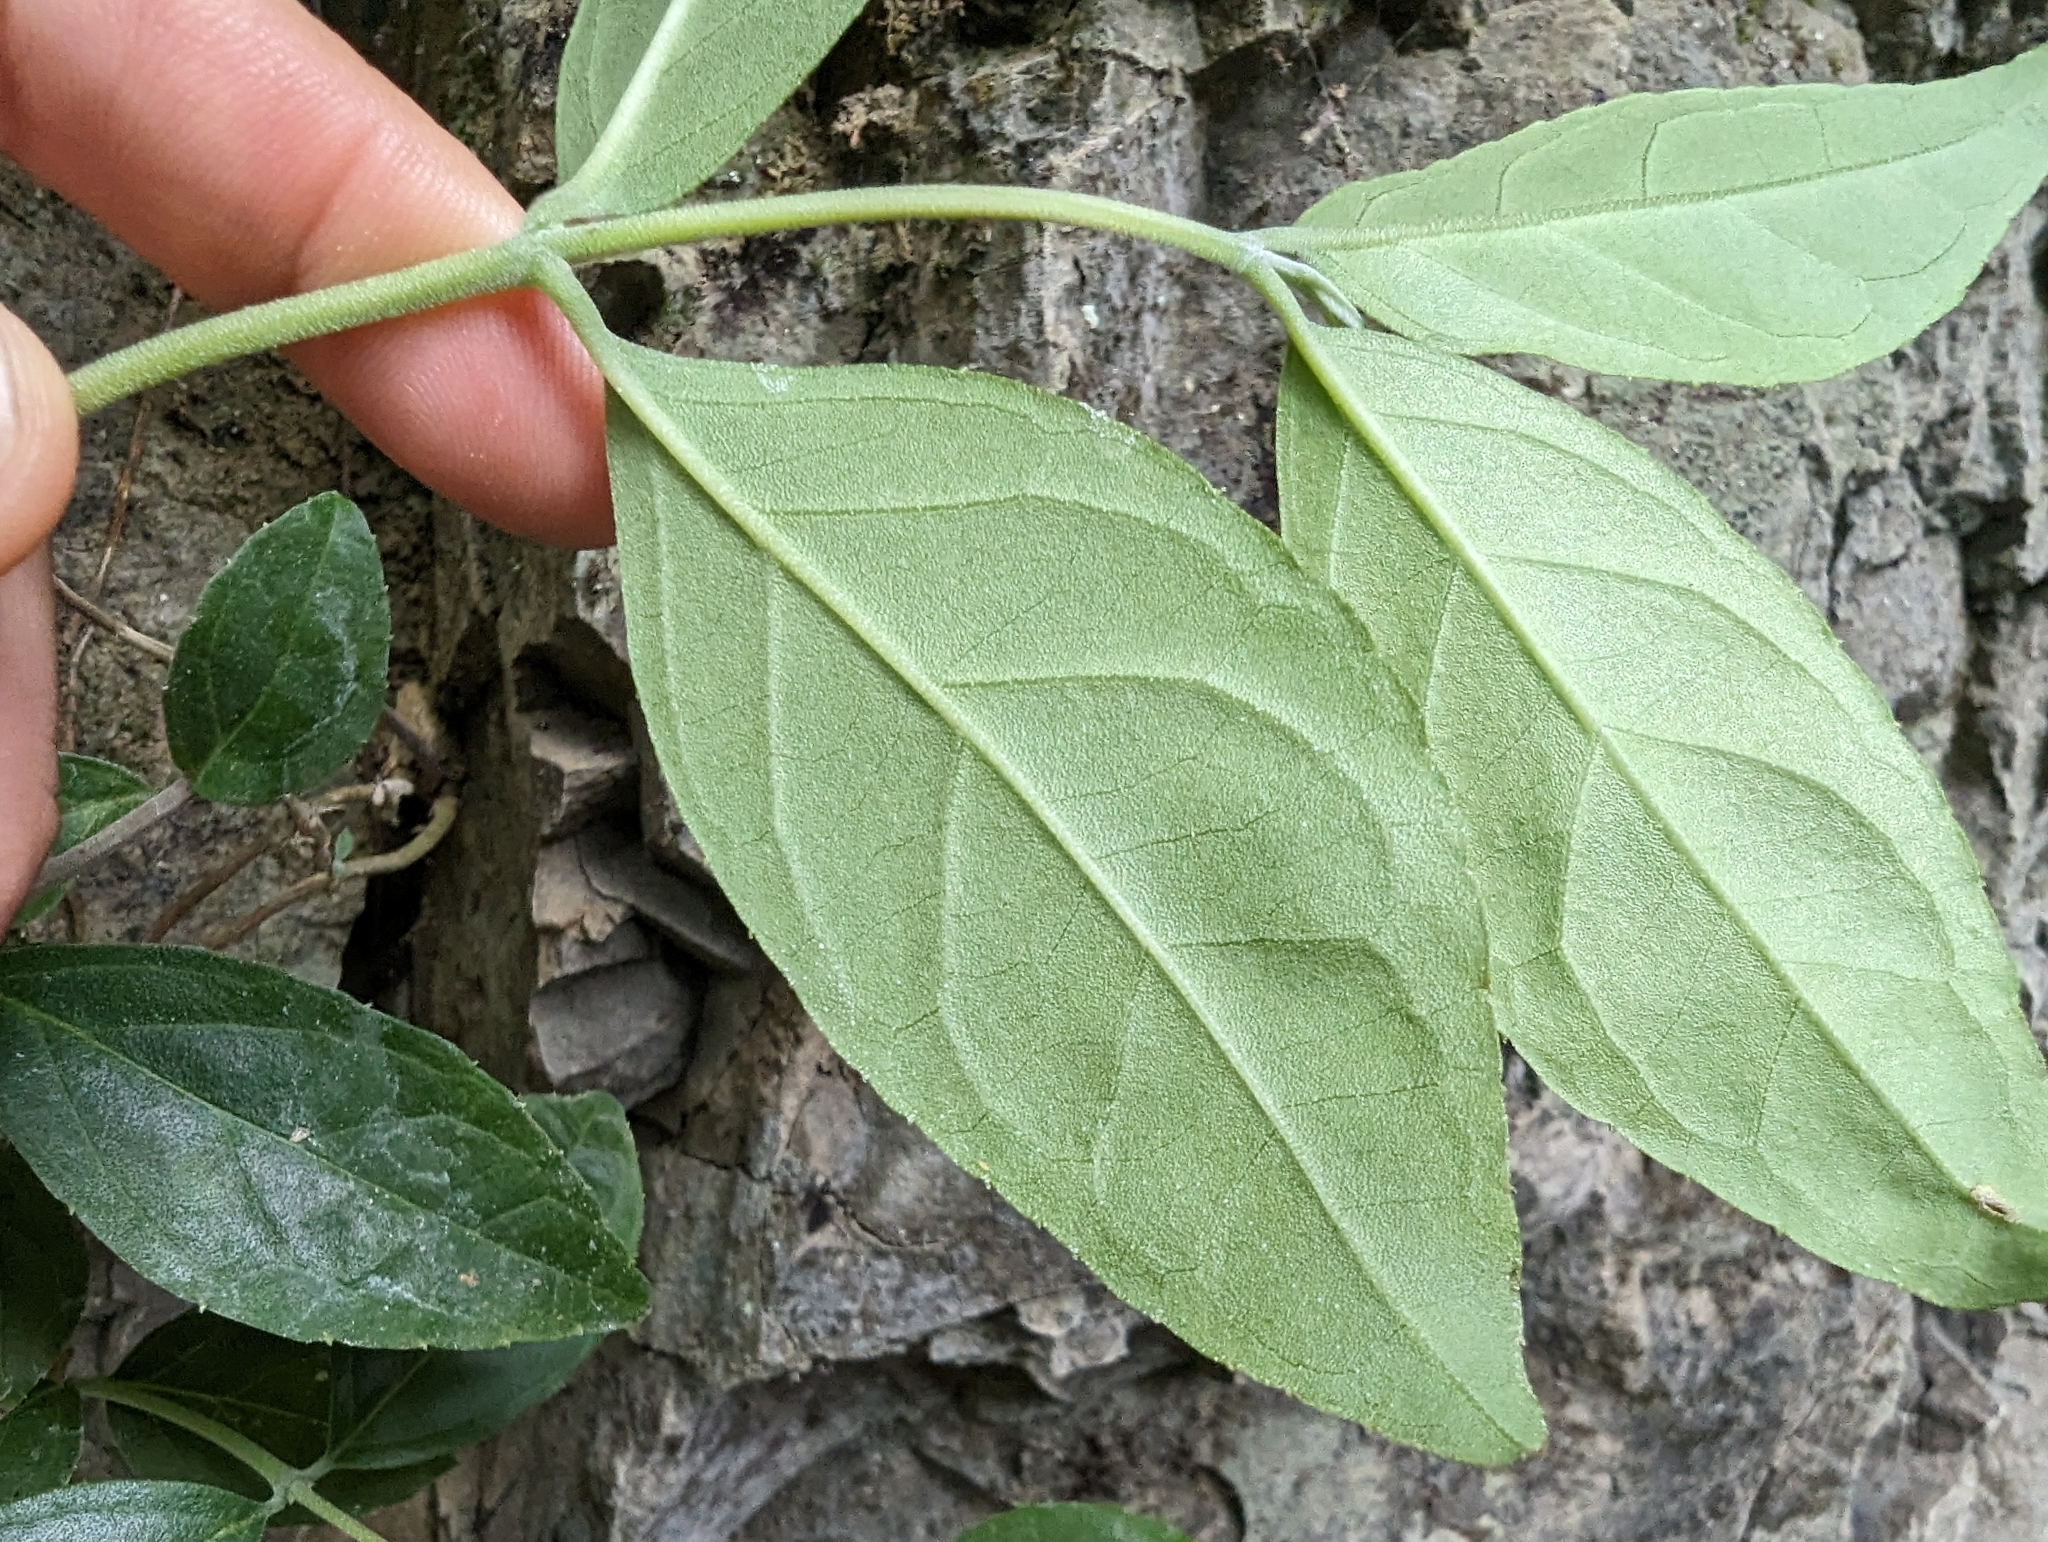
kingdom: Plantae
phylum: Tracheophyta
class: Magnoliopsida
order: Cornales
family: Hydrangeaceae
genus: Deutzia
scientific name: Deutzia pulchra
